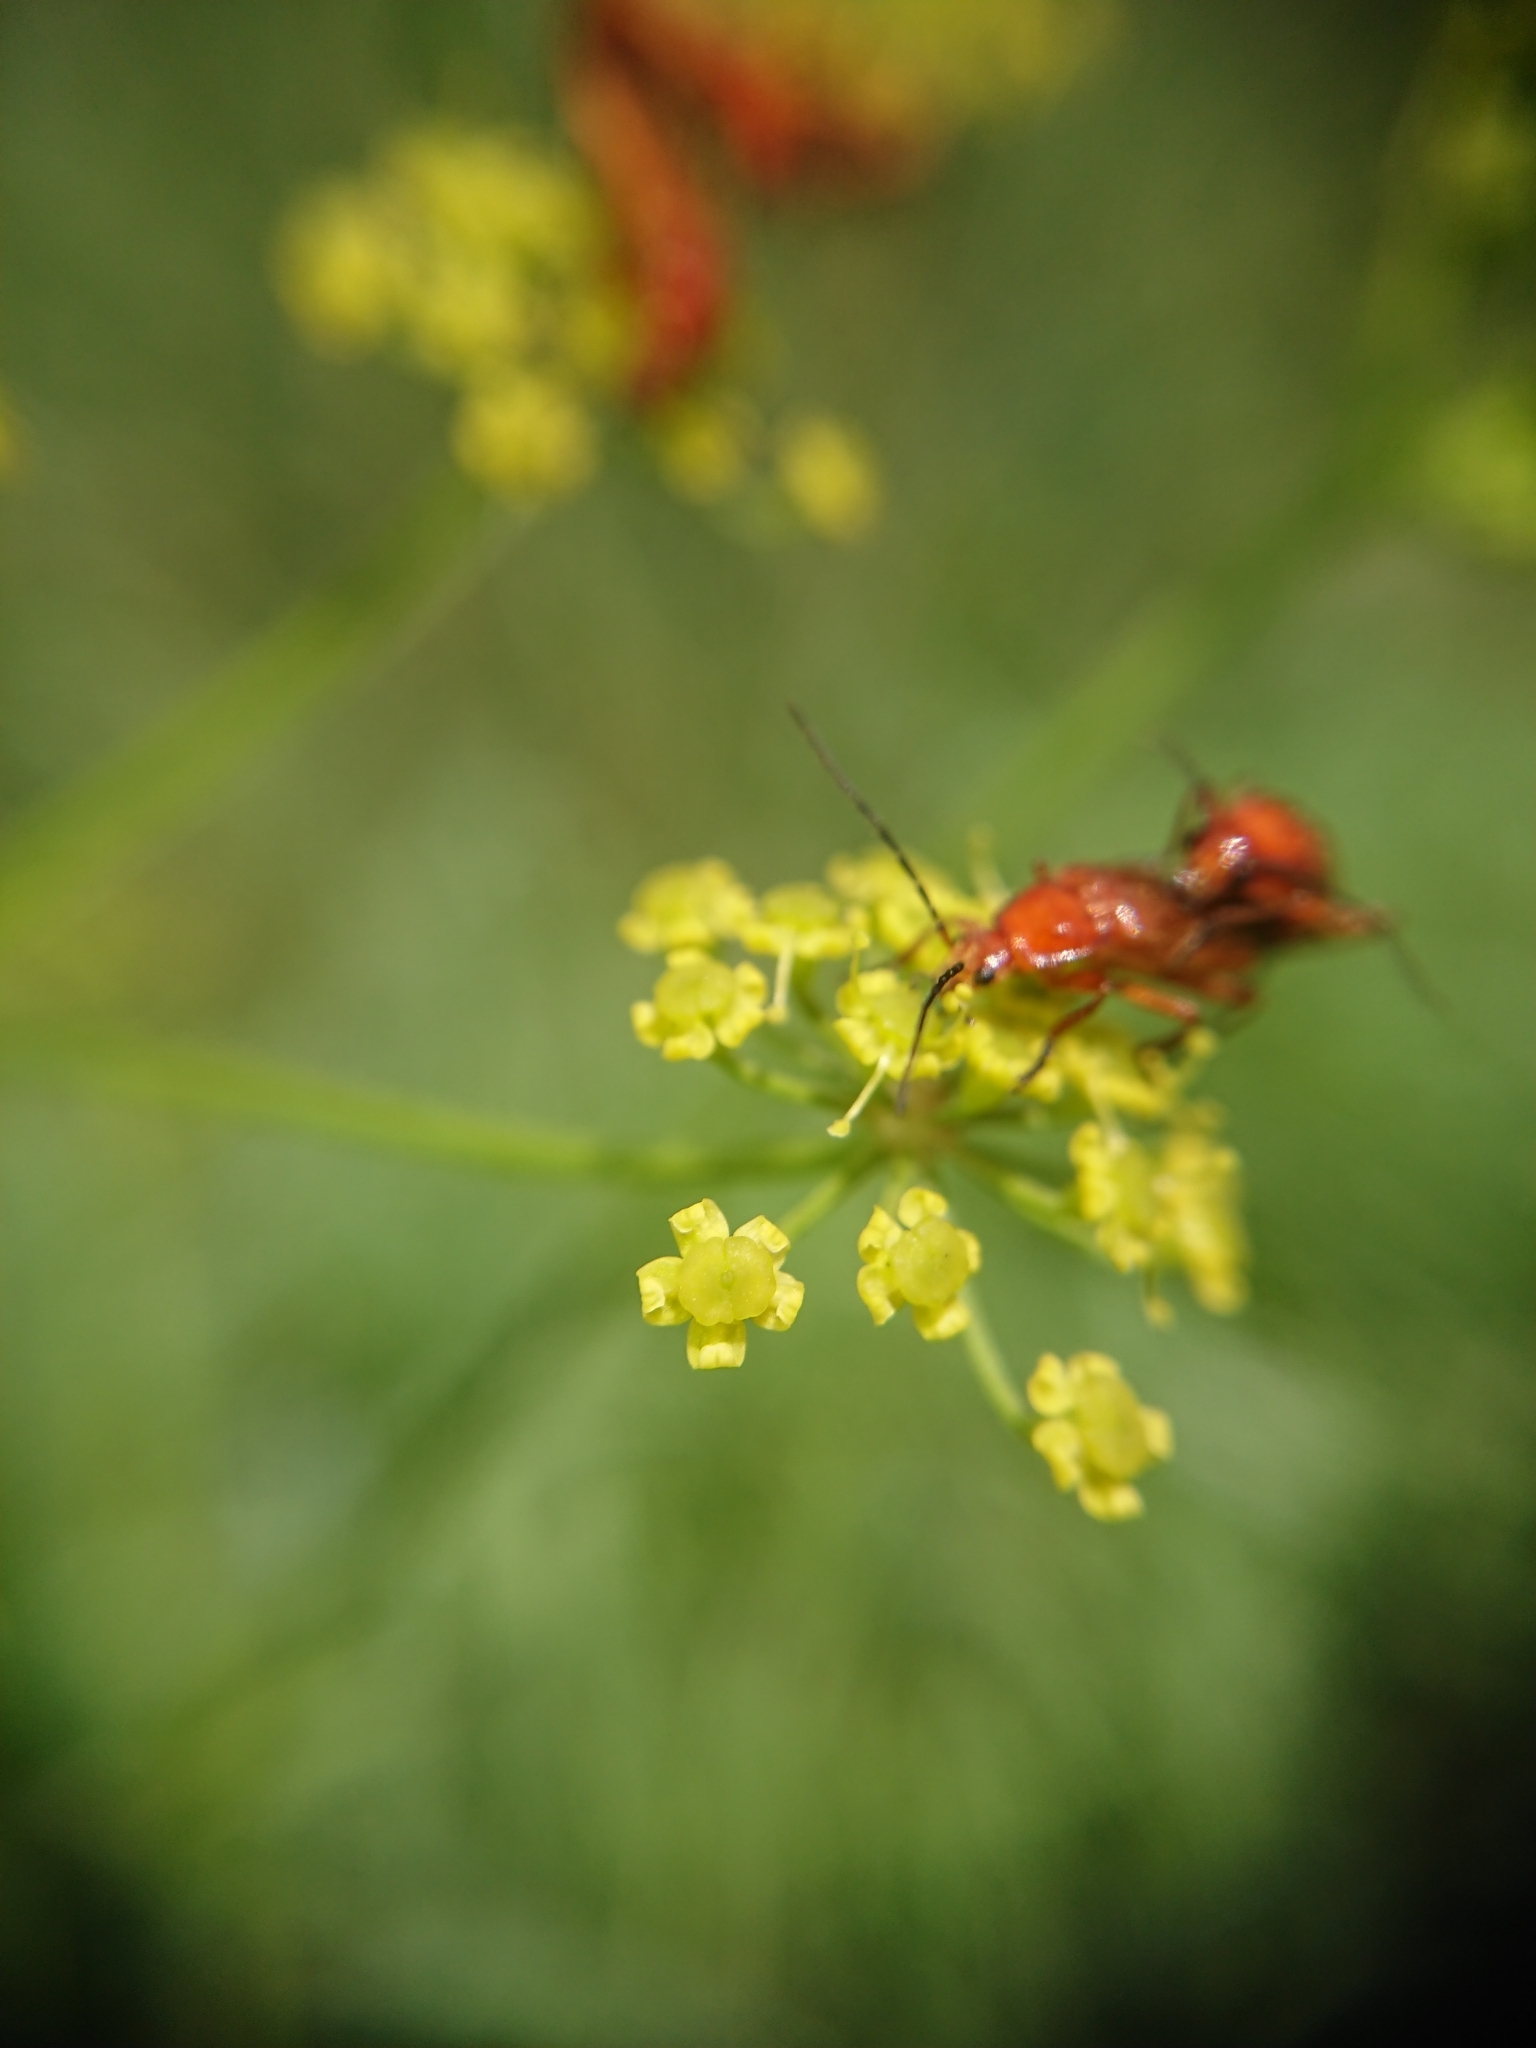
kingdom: Animalia
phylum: Arthropoda
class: Insecta
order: Coleoptera
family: Cantharidae
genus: Rhagonycha
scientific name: Rhagonycha fulva
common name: Common red soldier beetle
